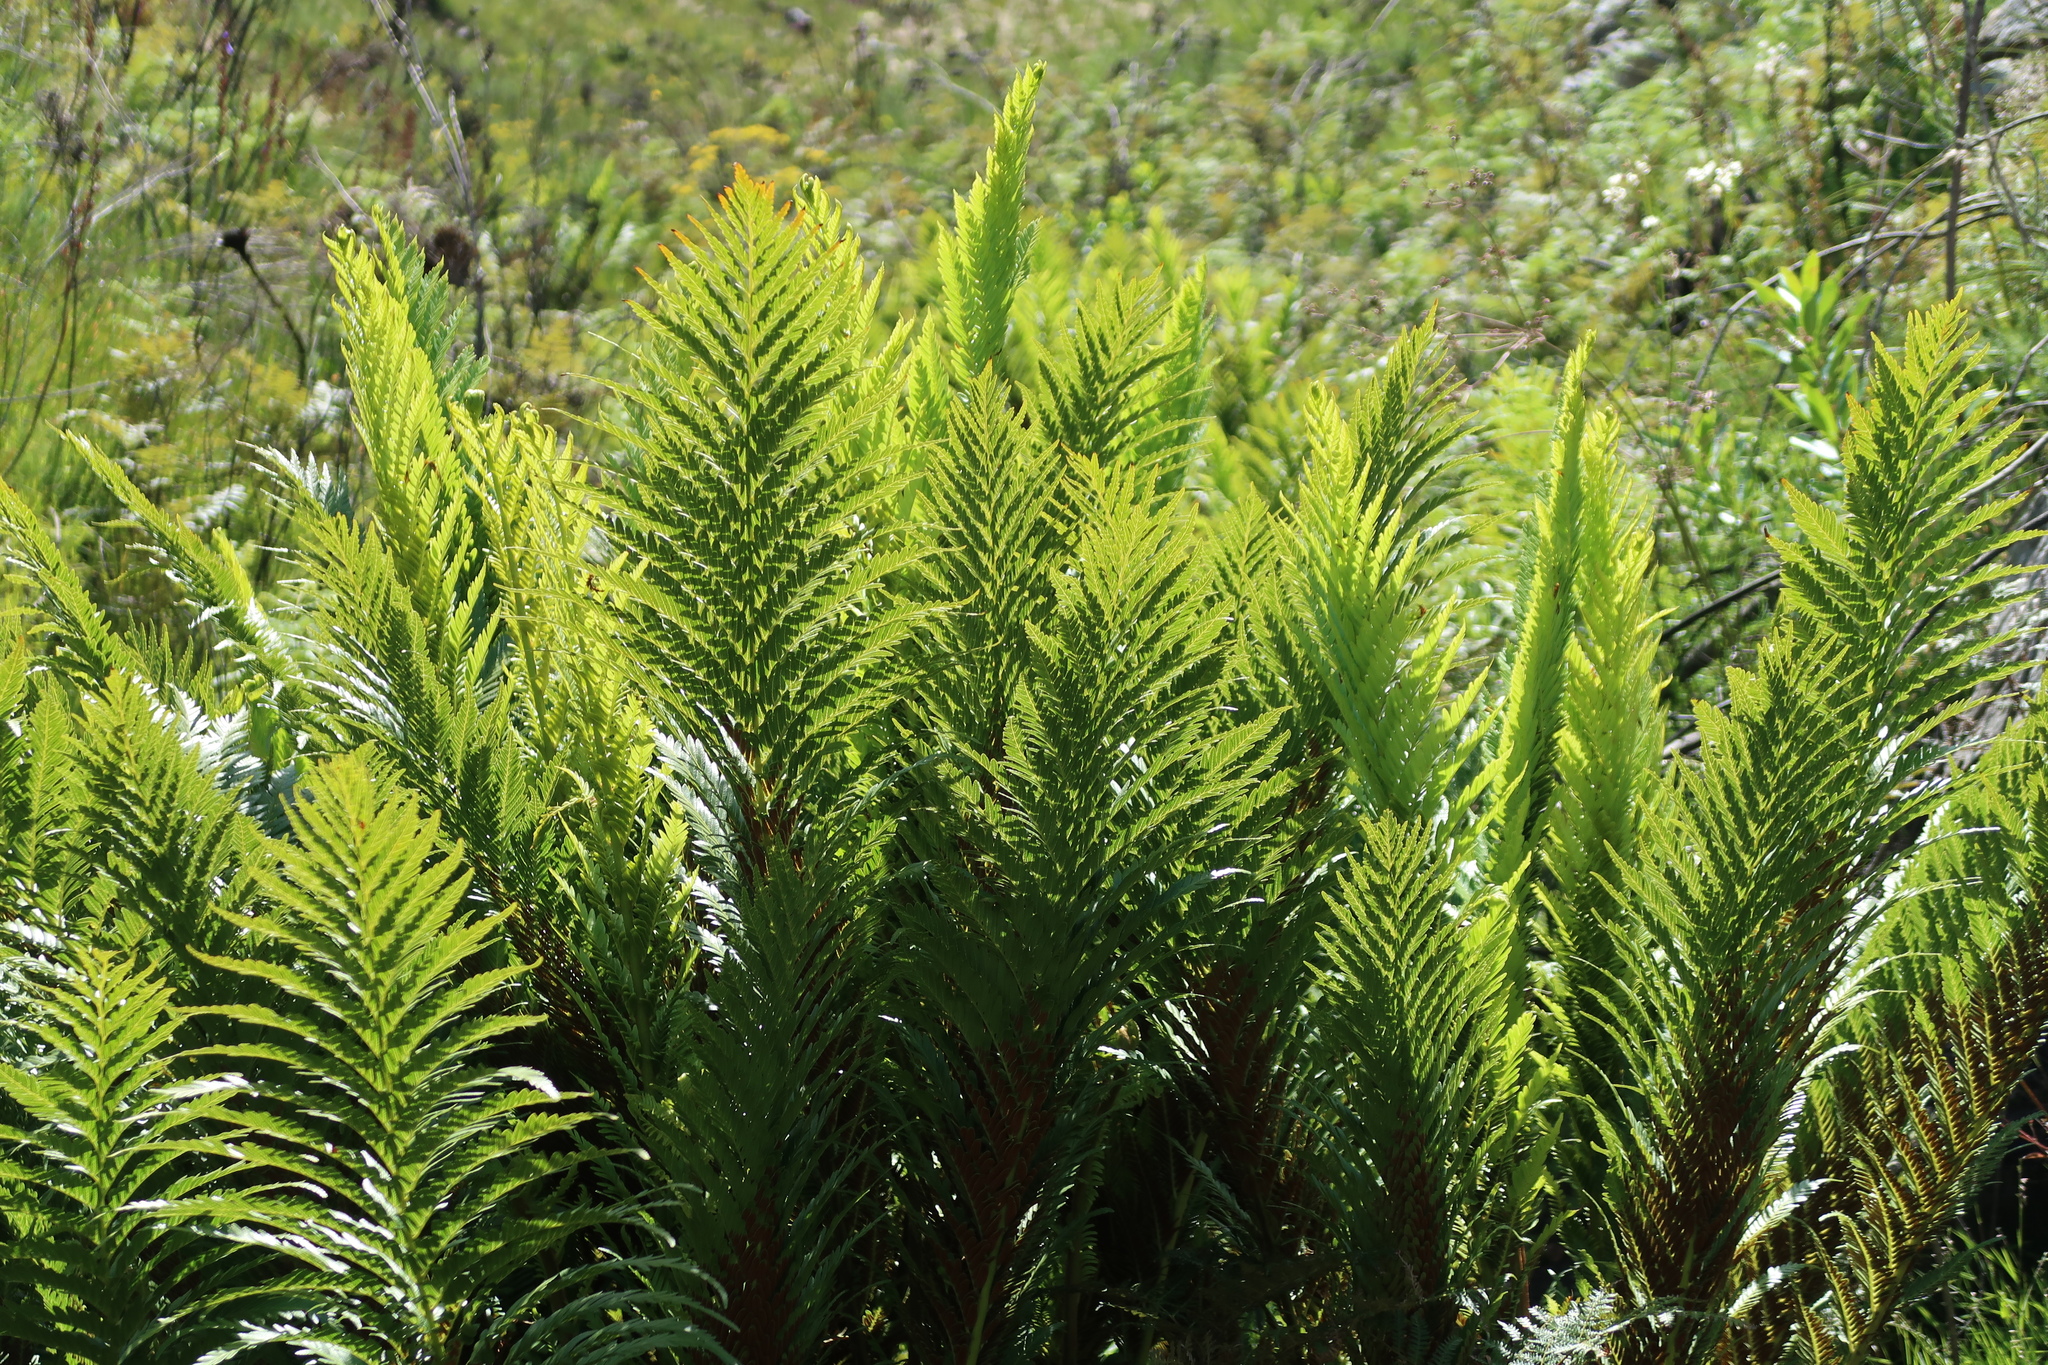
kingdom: Plantae
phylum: Tracheophyta
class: Polypodiopsida
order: Osmundales
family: Osmundaceae
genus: Todea
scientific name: Todea barbara
